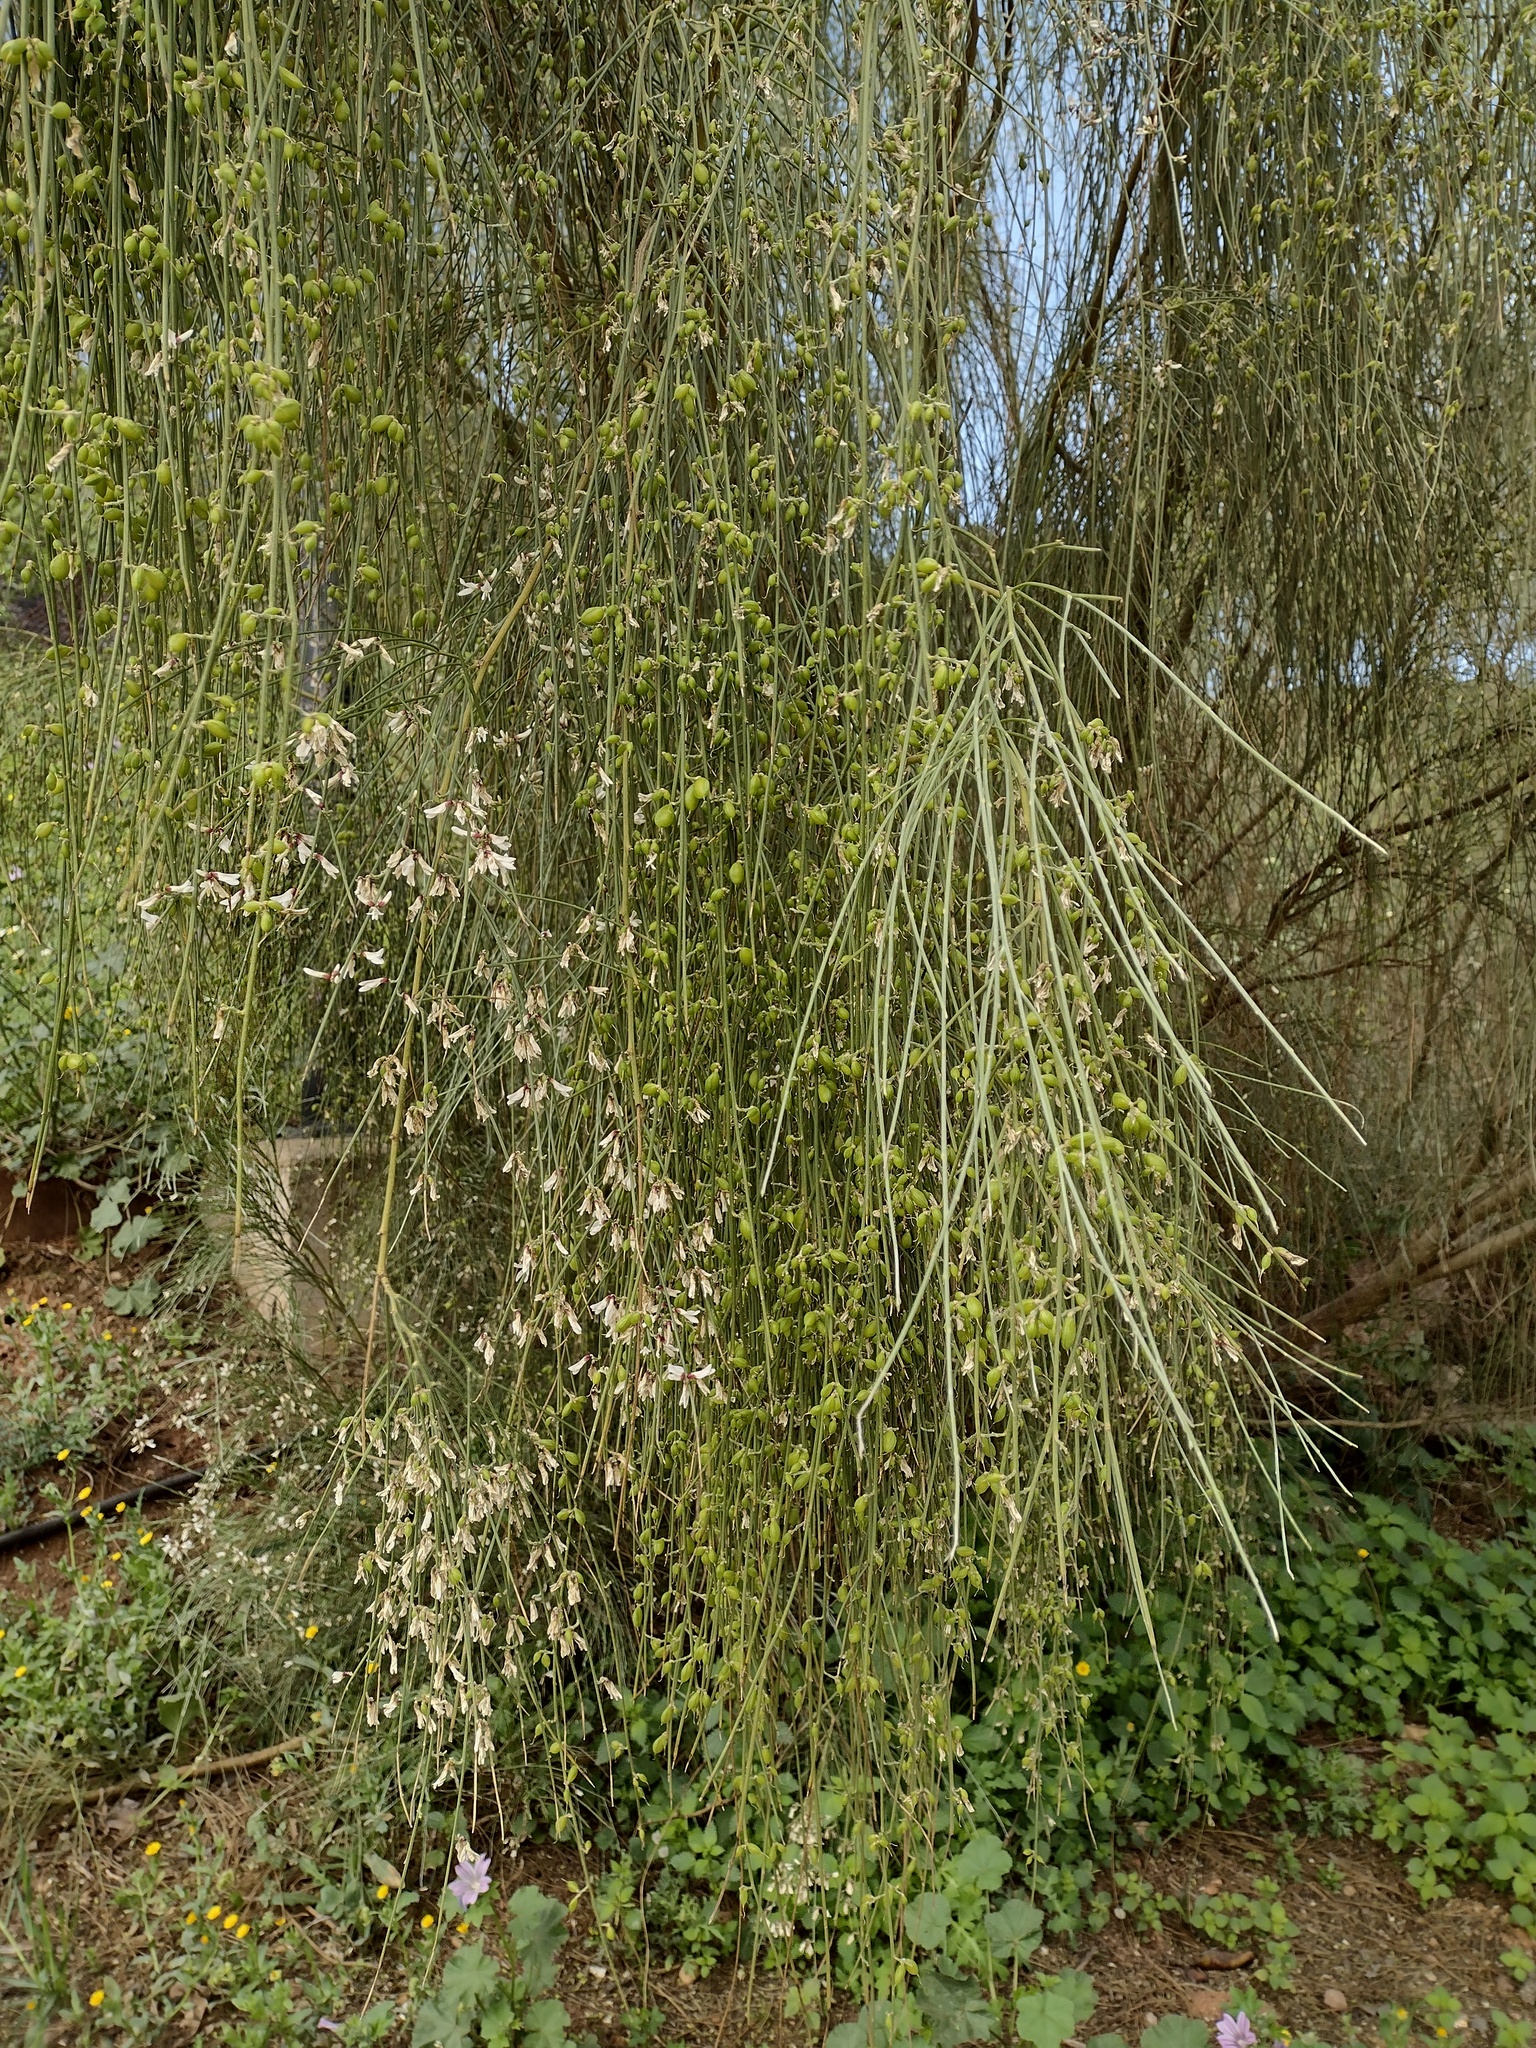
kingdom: Plantae
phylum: Tracheophyta
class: Magnoliopsida
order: Fabales
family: Fabaceae
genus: Retama
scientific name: Retama monosperma
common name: Bridal broom
